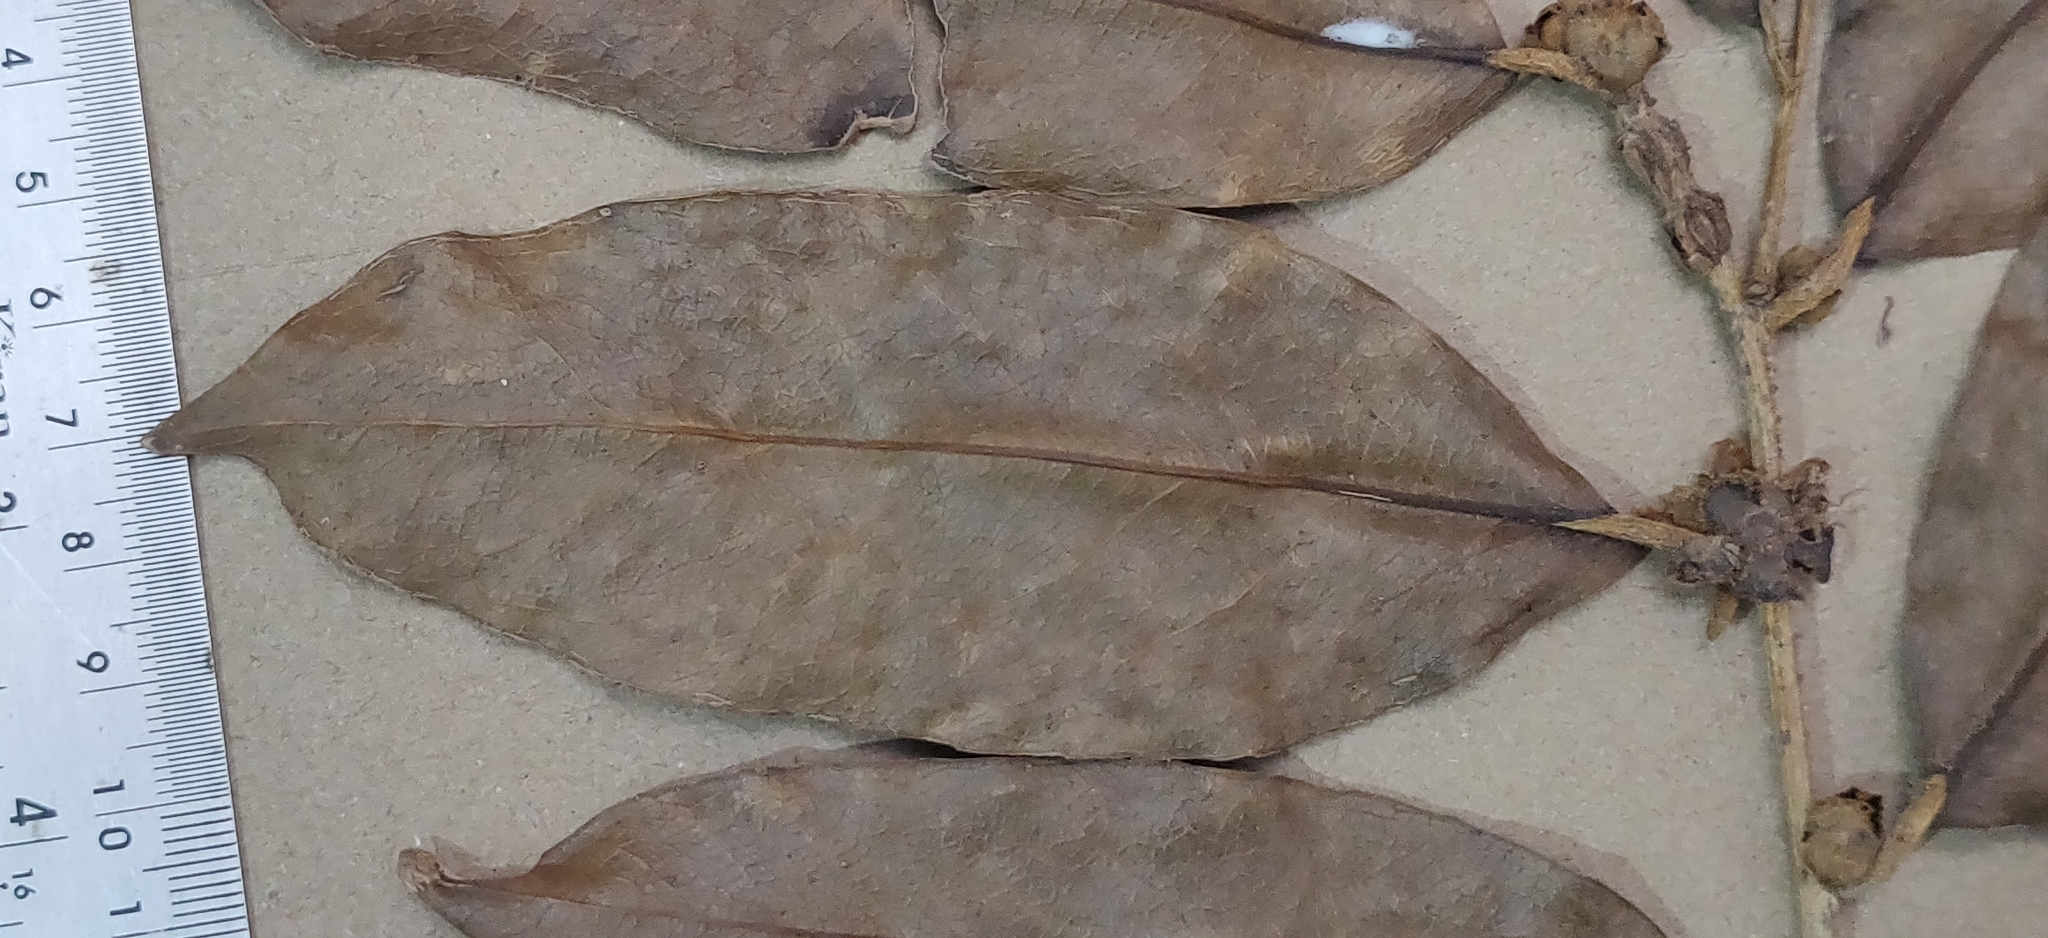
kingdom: Plantae
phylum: Tracheophyta
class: Magnoliopsida
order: Malpighiales
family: Achariaceae
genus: Hydnocarpus
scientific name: Hydnocarpus alpinus
